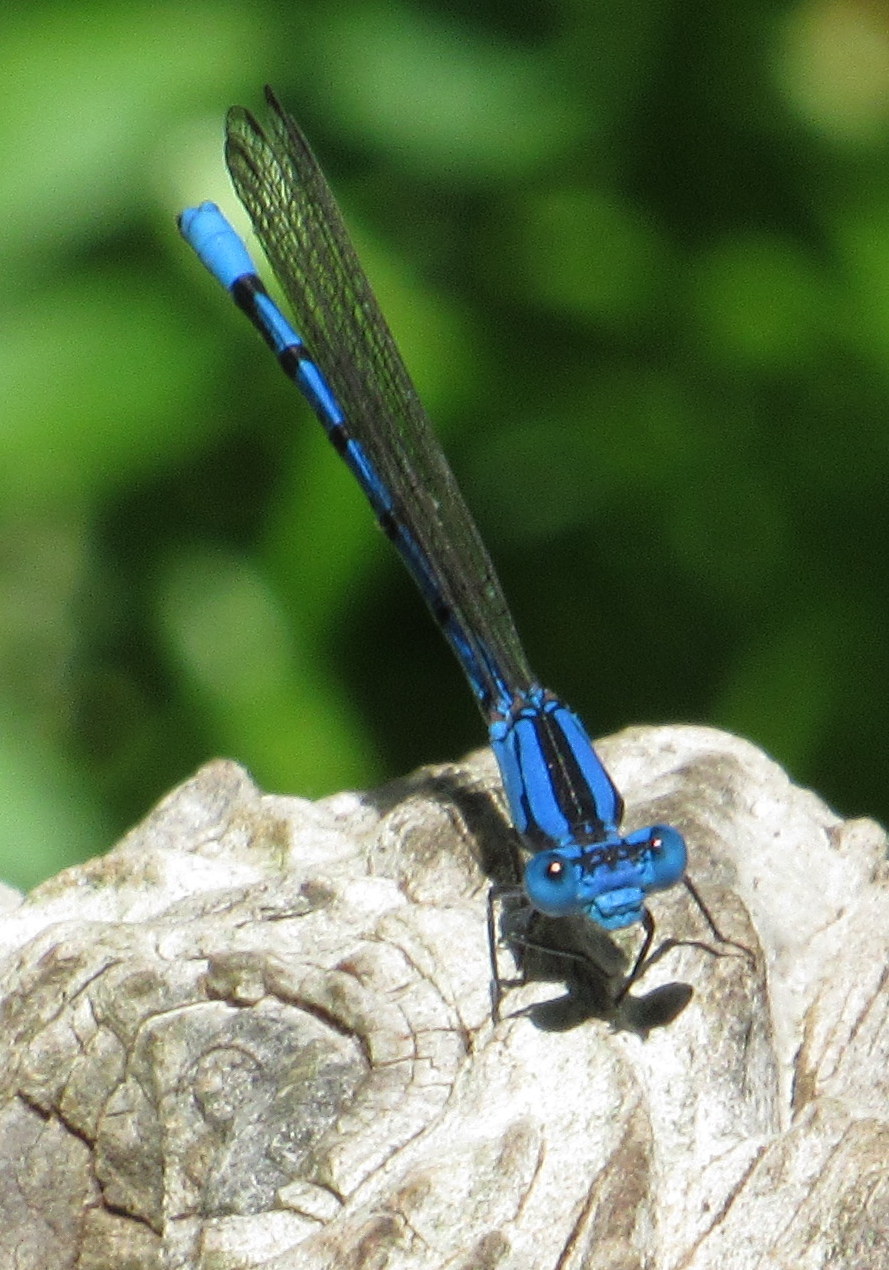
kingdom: Animalia
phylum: Arthropoda
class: Insecta
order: Odonata
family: Coenagrionidae
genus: Argia
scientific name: Argia funebris
